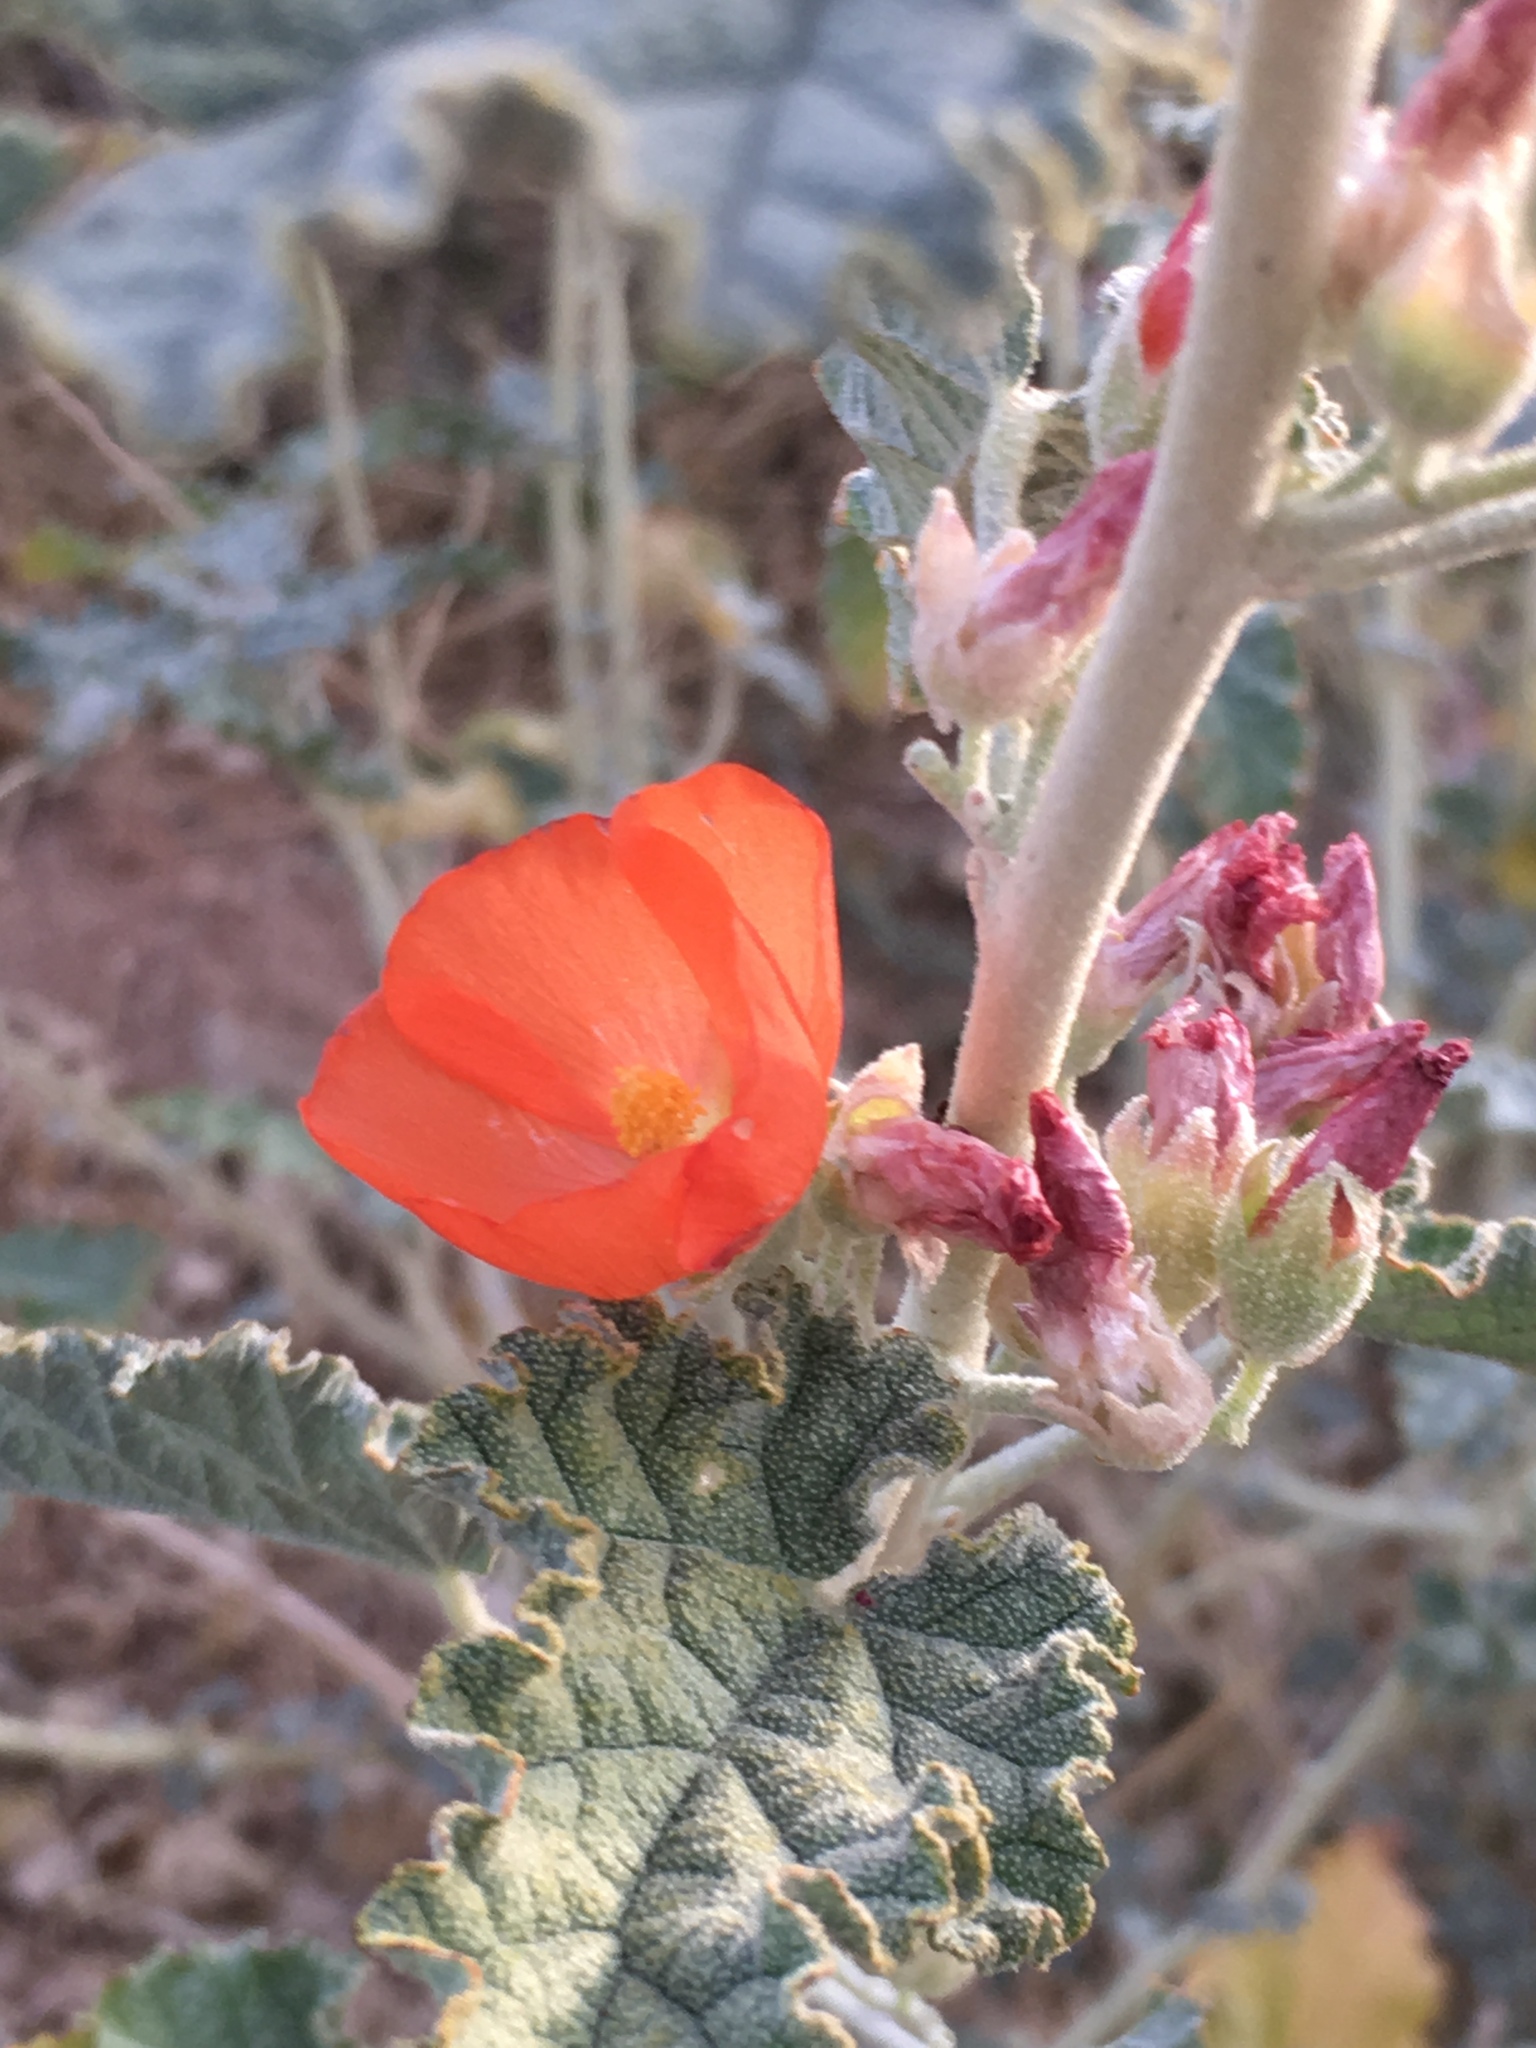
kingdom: Plantae
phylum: Tracheophyta
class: Magnoliopsida
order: Malvales
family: Malvaceae
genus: Sphaeralcea
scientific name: Sphaeralcea ambigua
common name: Apricot globe-mallow
